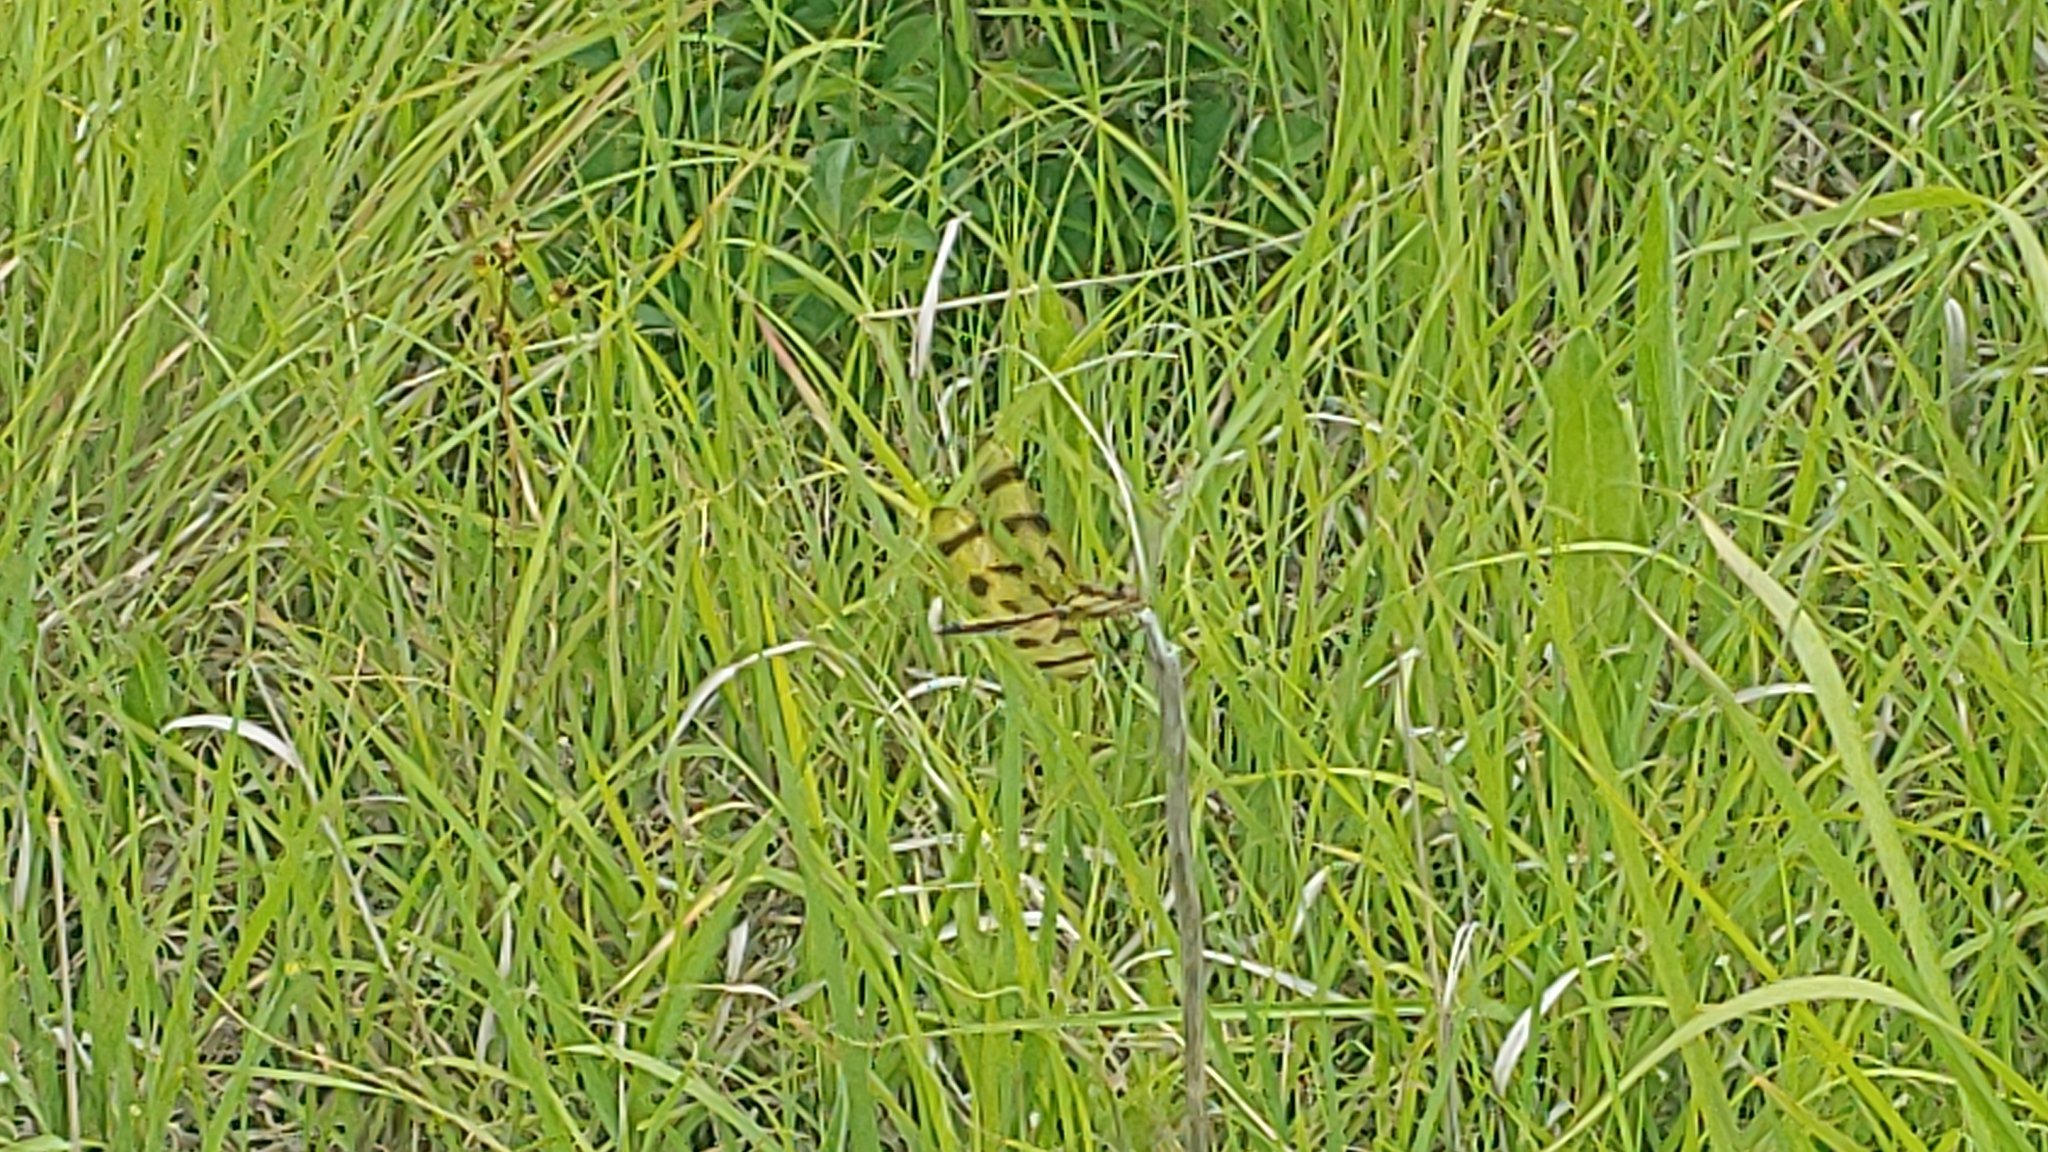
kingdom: Animalia
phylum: Arthropoda
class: Insecta
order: Odonata
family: Libellulidae
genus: Celithemis
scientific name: Celithemis eponina
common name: Halloween pennant
